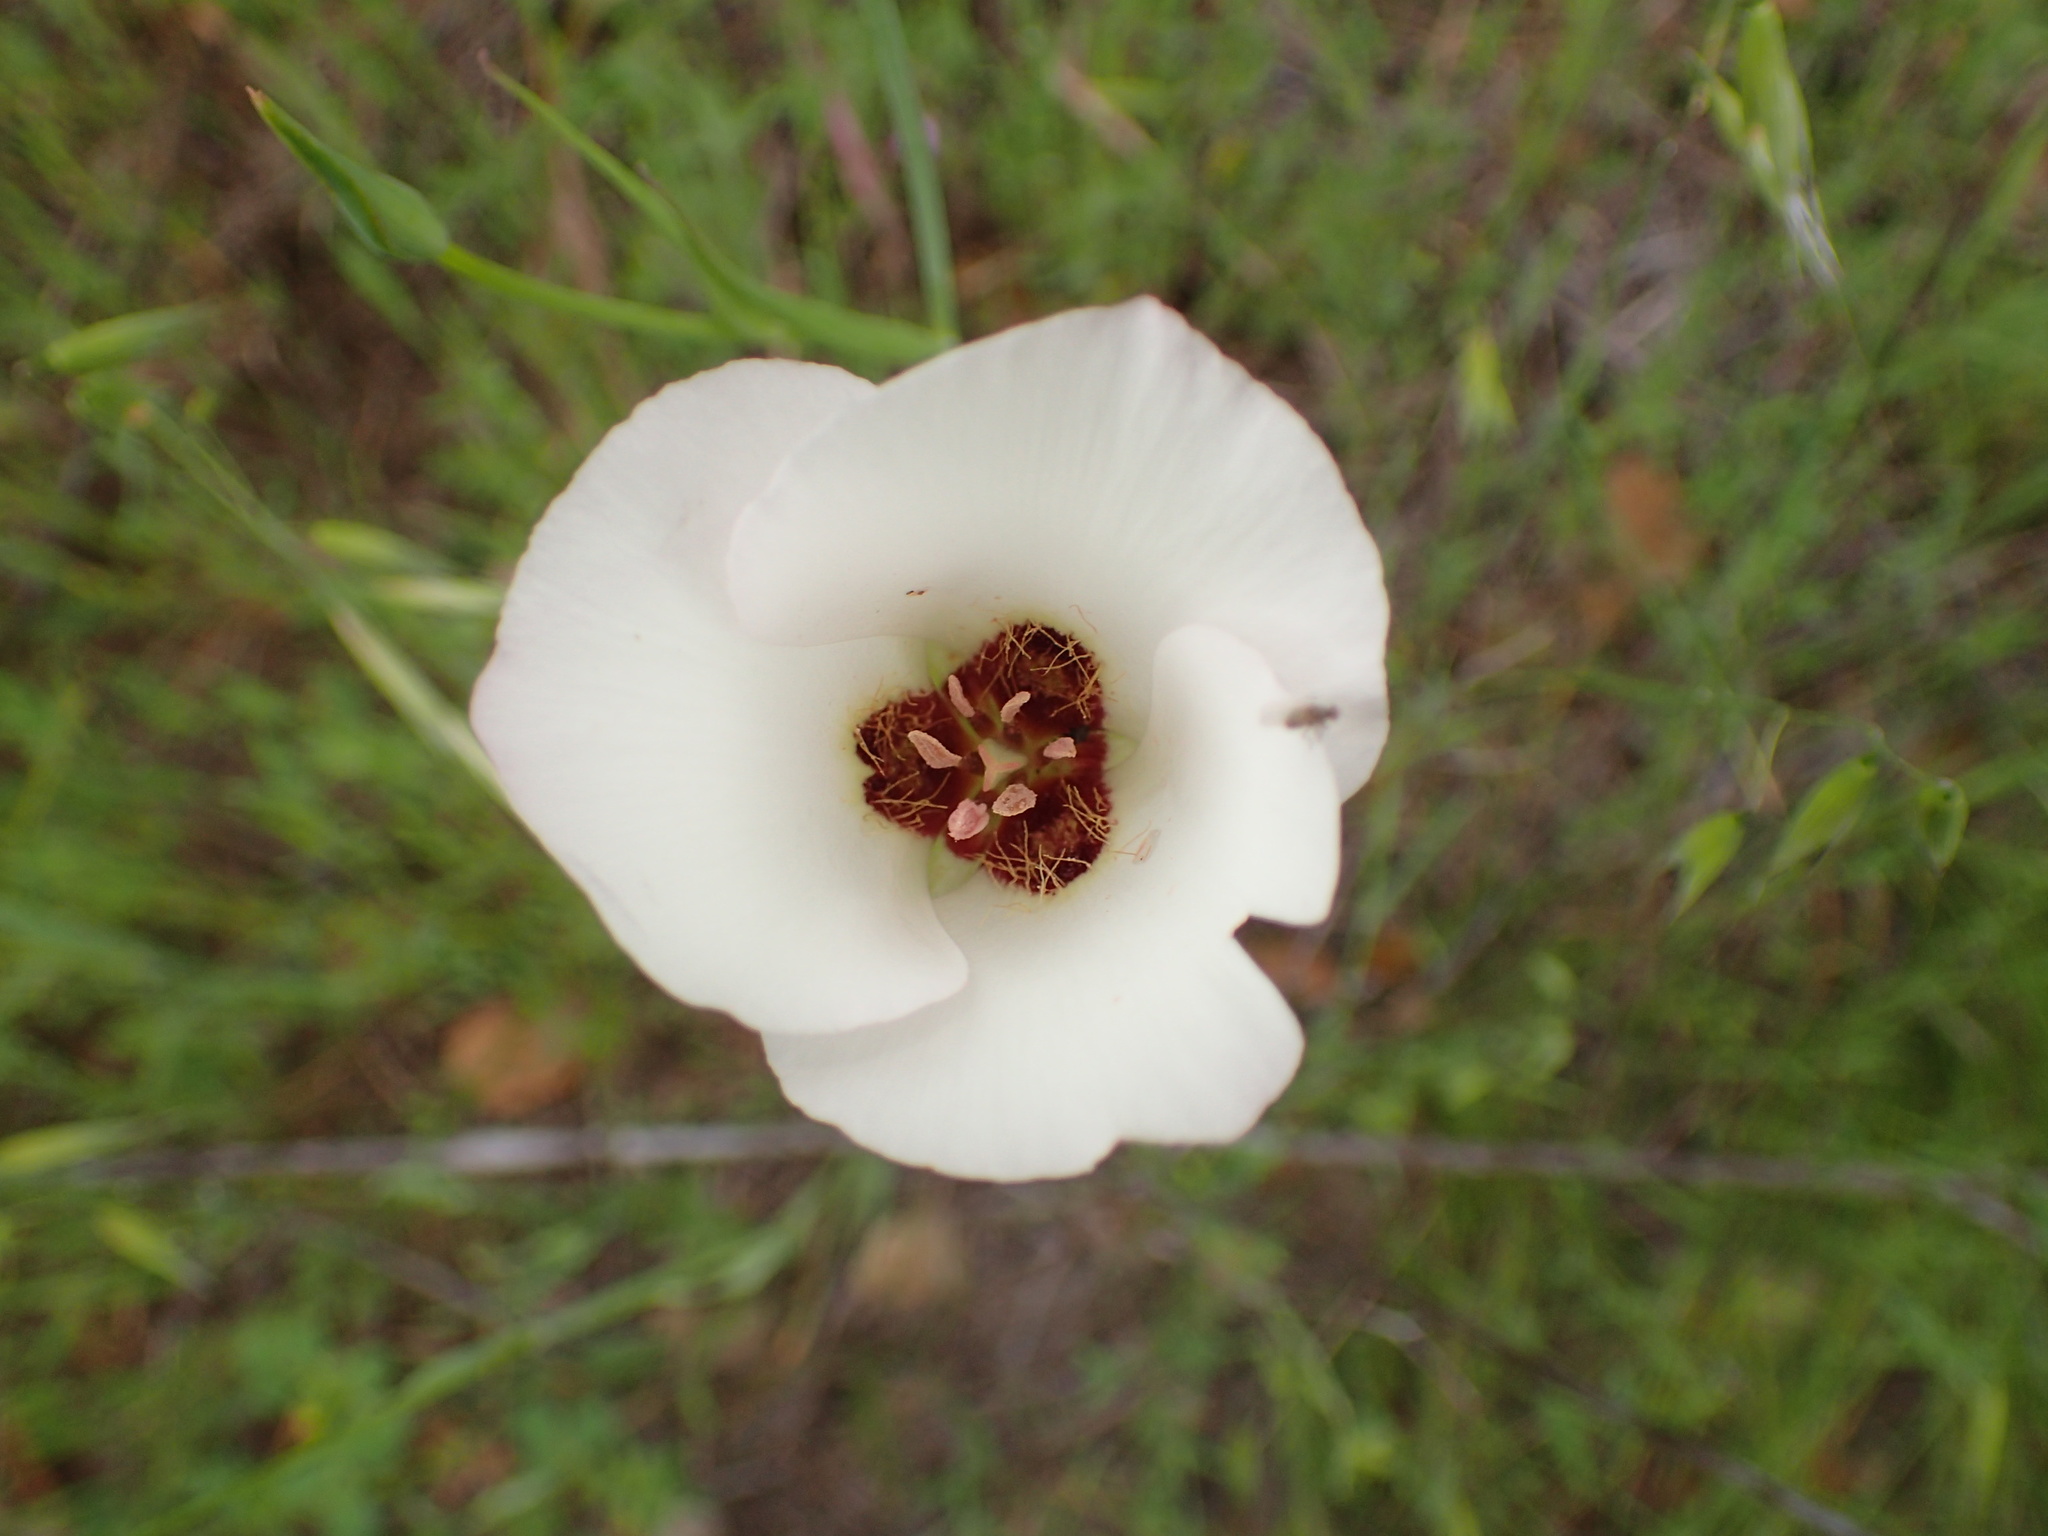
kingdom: Plantae
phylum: Tracheophyta
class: Liliopsida
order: Liliales
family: Liliaceae
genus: Calochortus
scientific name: Calochortus catalinae
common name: Catalina mariposa-lily
